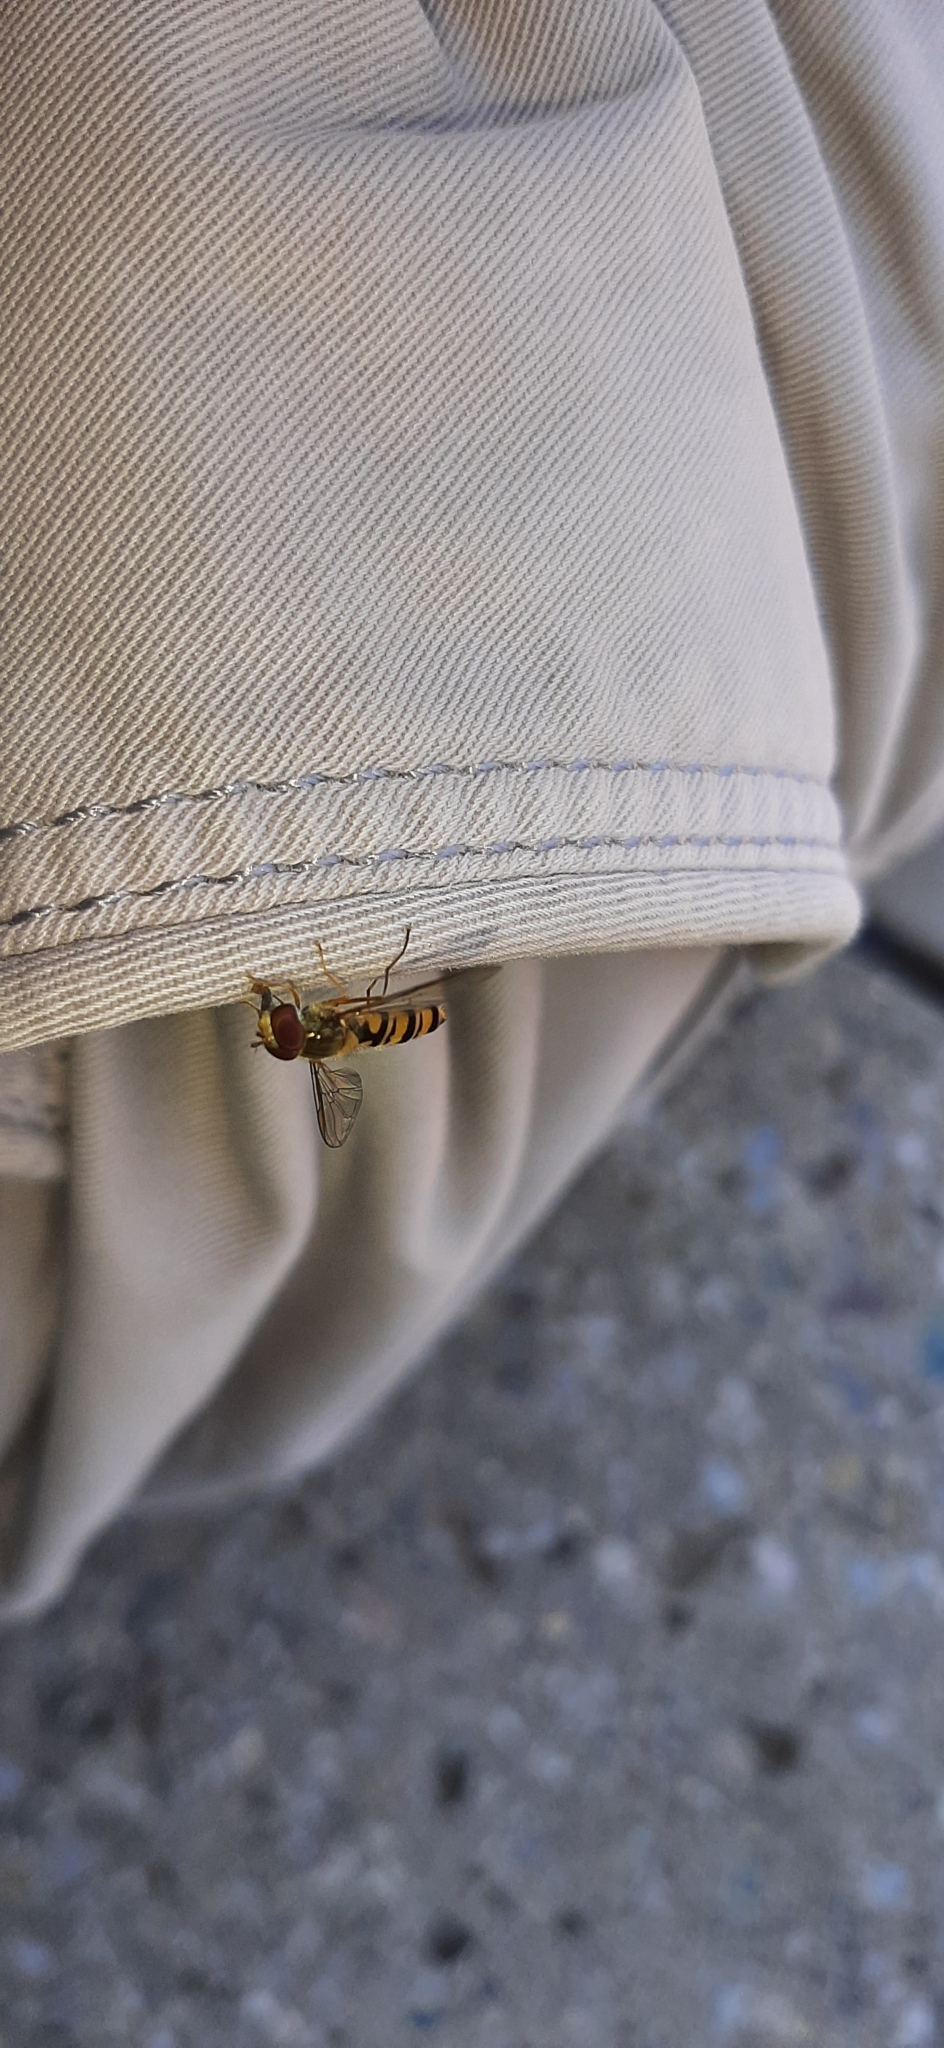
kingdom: Animalia
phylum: Arthropoda
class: Insecta
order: Diptera
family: Syrphidae
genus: Episyrphus
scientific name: Episyrphus balteatus
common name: Marmalade hoverfly
